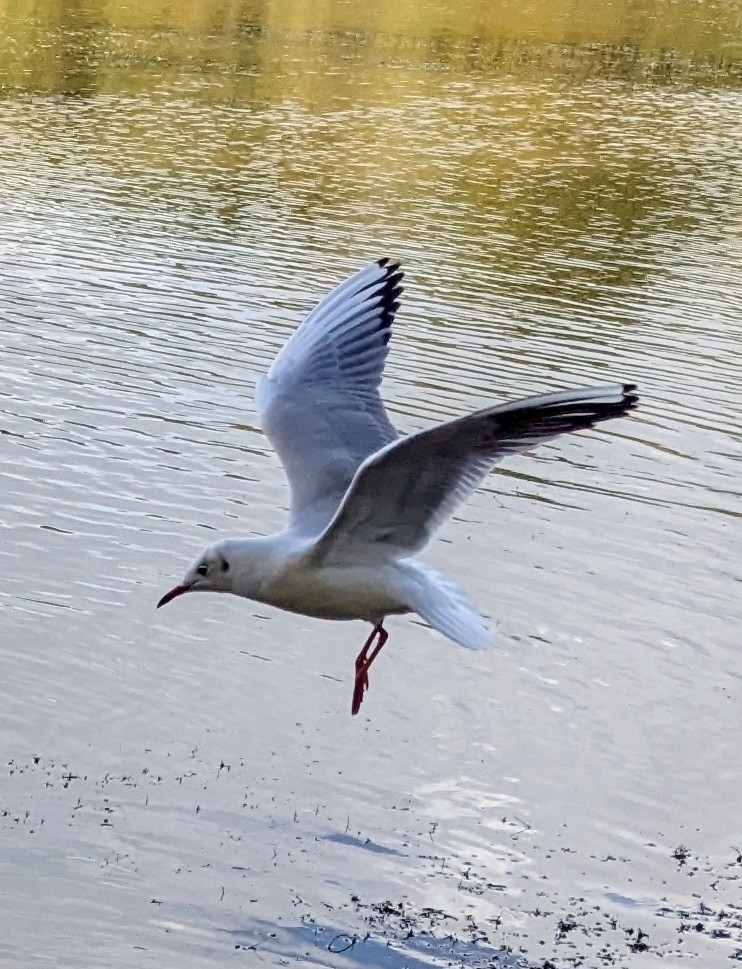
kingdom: Animalia
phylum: Chordata
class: Aves
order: Charadriiformes
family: Laridae
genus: Chroicocephalus
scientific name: Chroicocephalus ridibundus
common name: Black-headed gull
